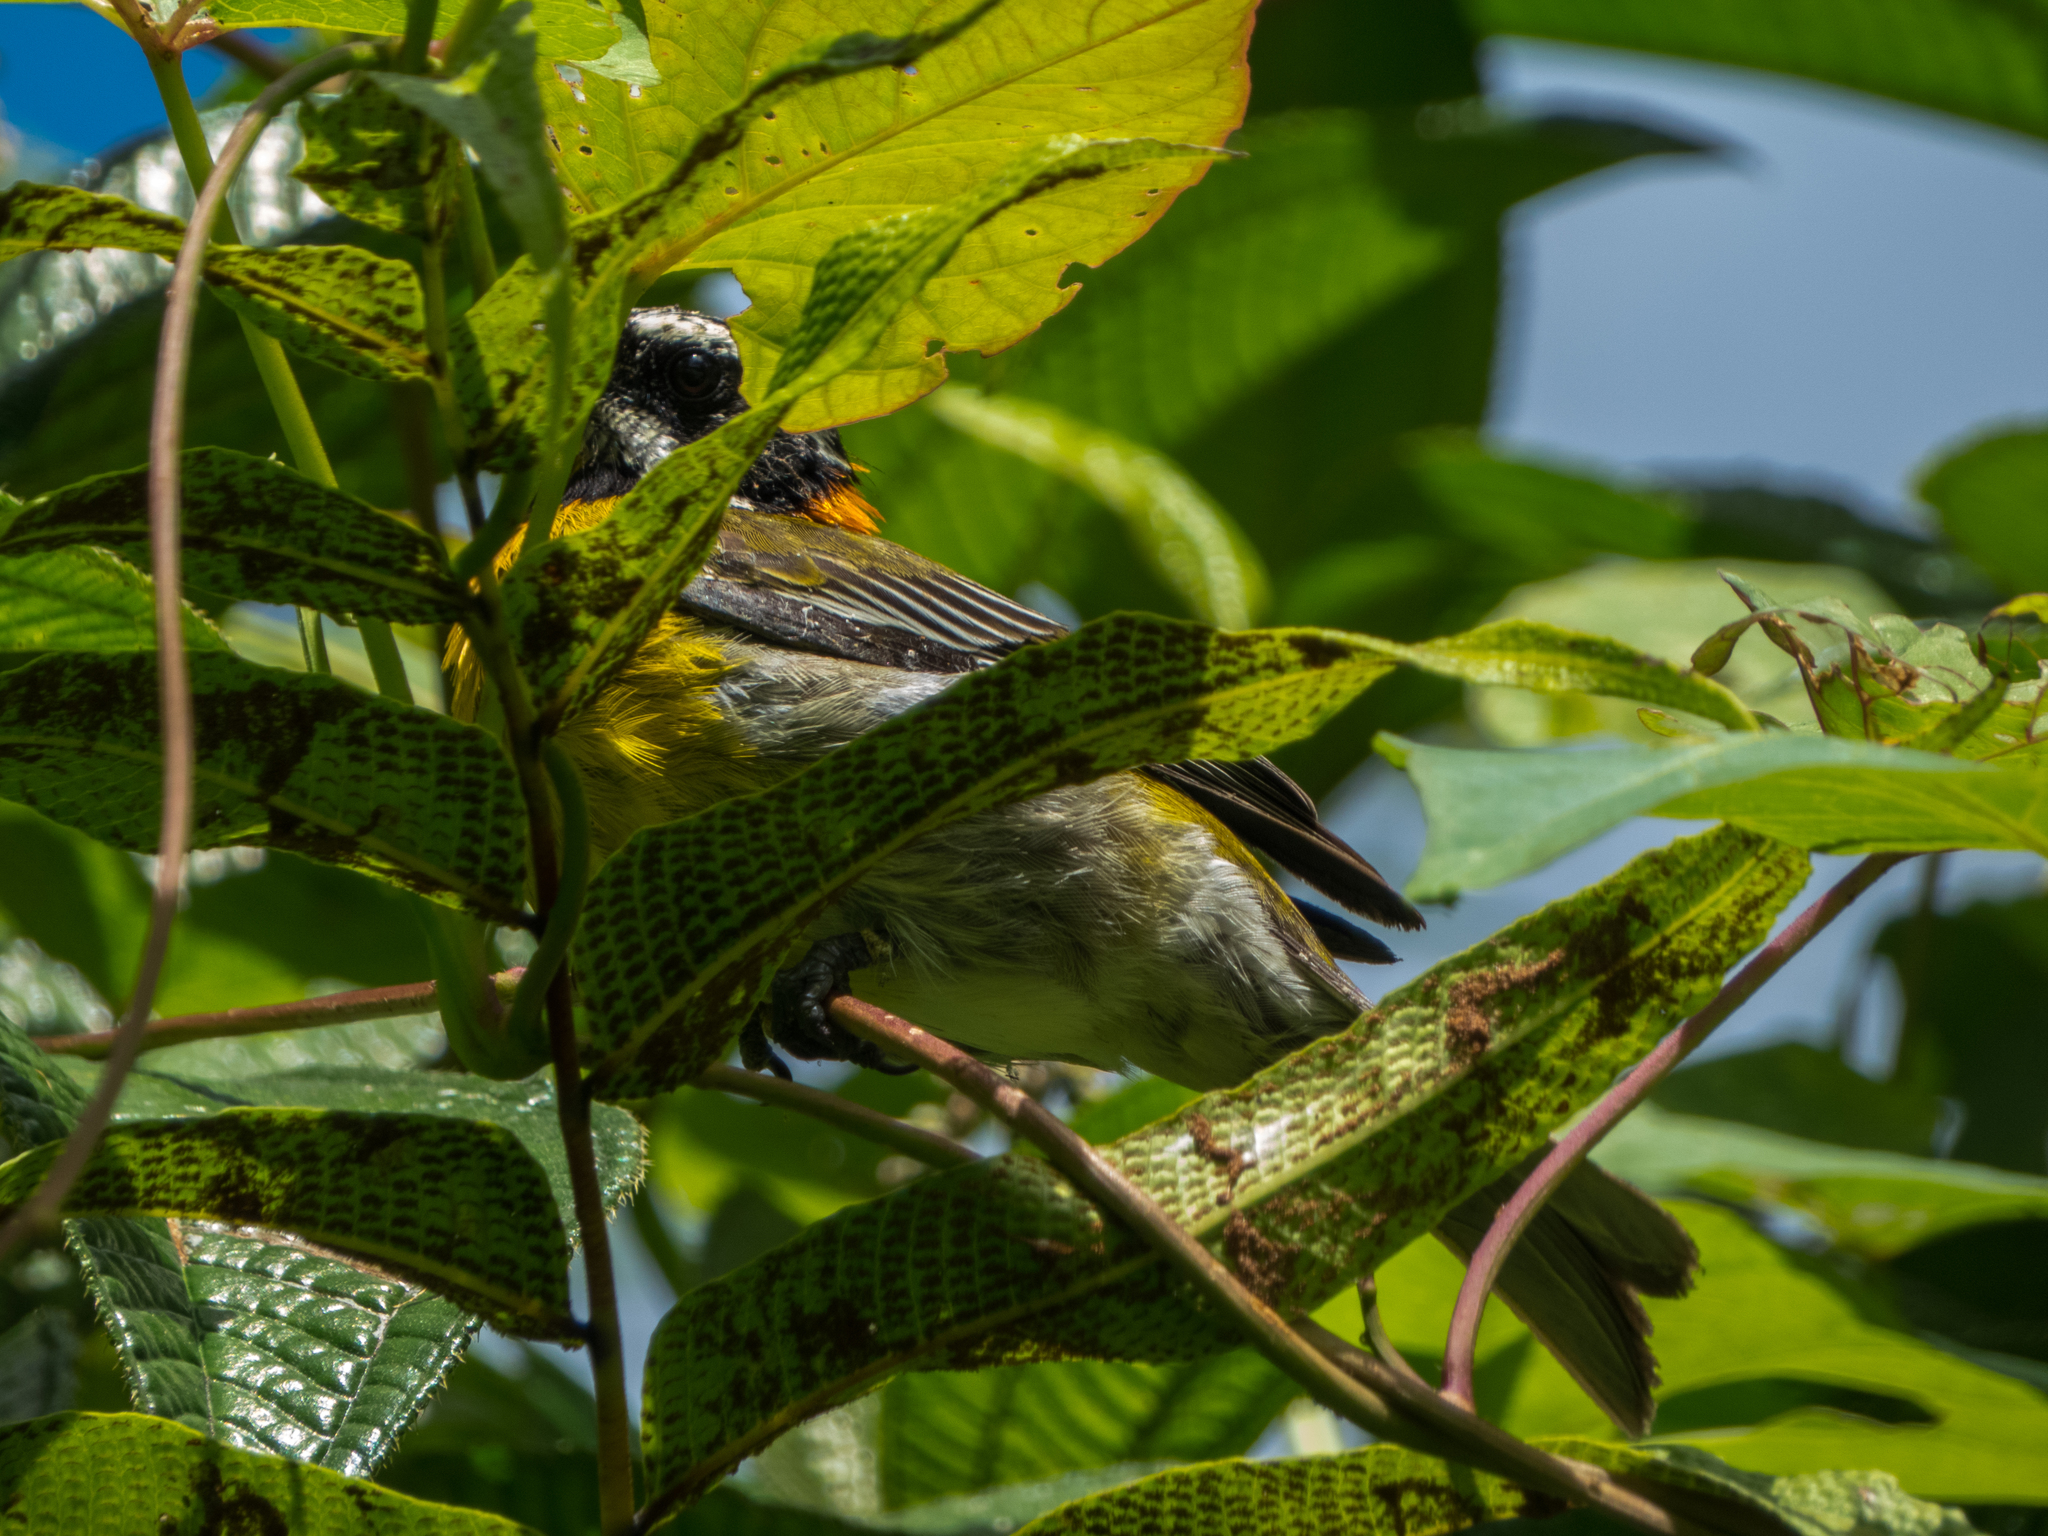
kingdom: Animalia
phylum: Chordata
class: Aves
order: Passeriformes
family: Spindalidae
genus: Spindalis
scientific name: Spindalis portoricensis
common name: Puerto rican spindalis
